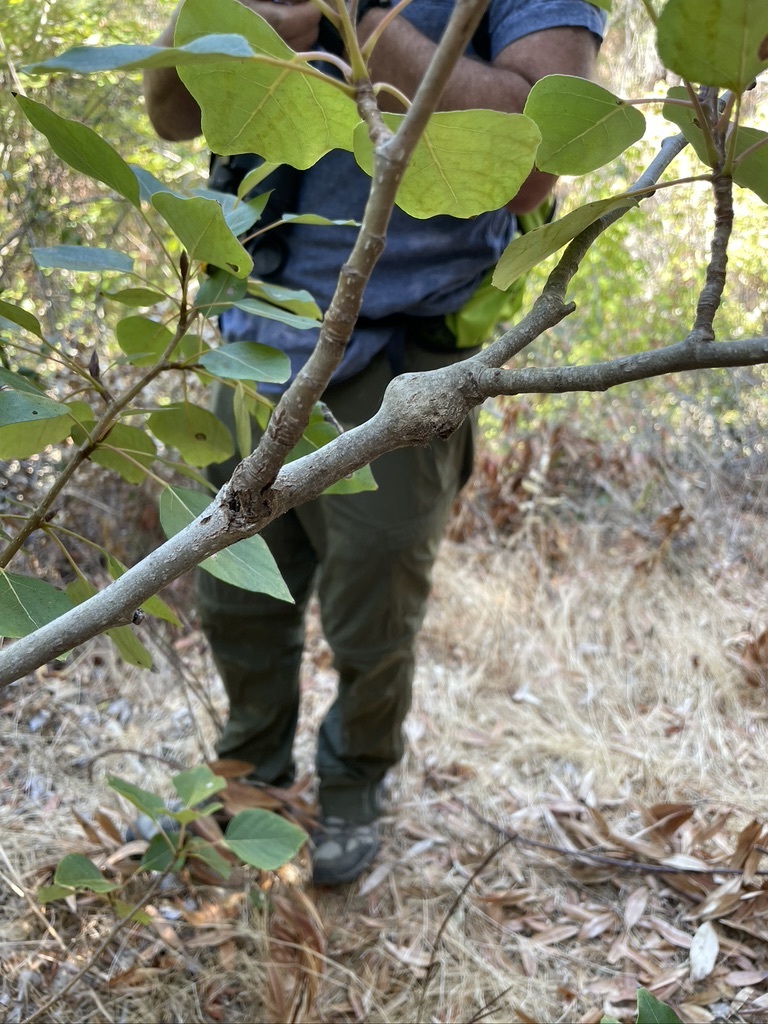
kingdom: Animalia
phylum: Arthropoda
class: Insecta
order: Coleoptera
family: Cerambycidae
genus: Saperda
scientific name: Saperda populnea
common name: Small poplar borer
